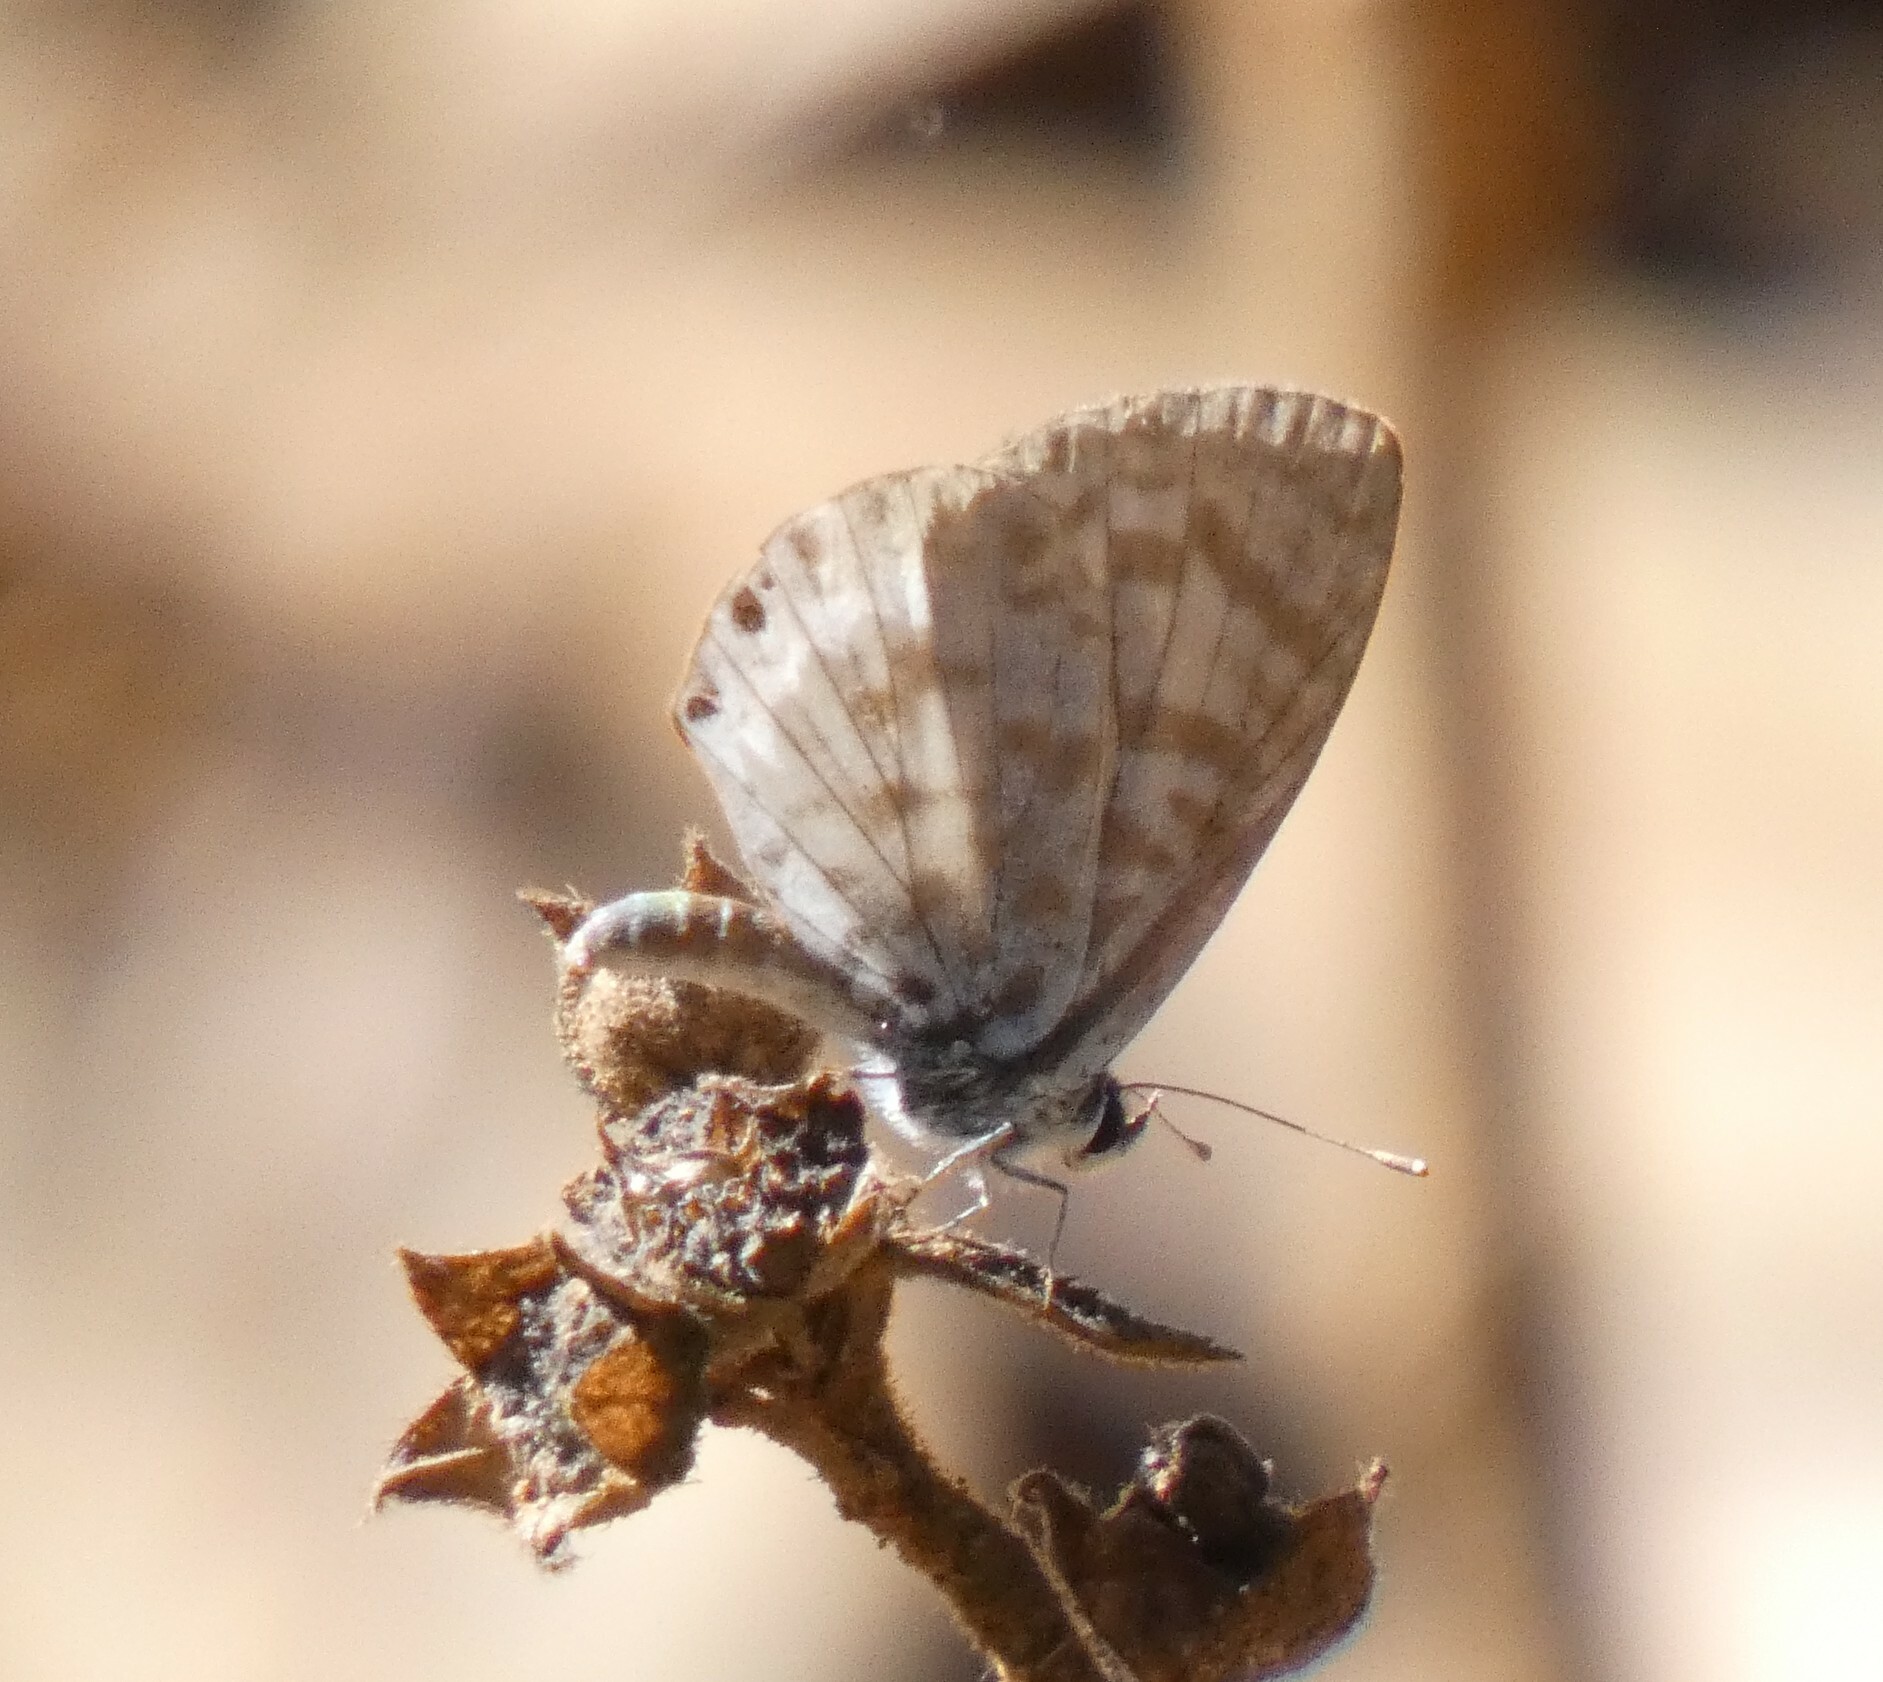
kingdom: Animalia
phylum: Arthropoda
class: Insecta
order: Lepidoptera
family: Lycaenidae
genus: Leptotes
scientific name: Leptotes cassius
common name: Cassius blue
